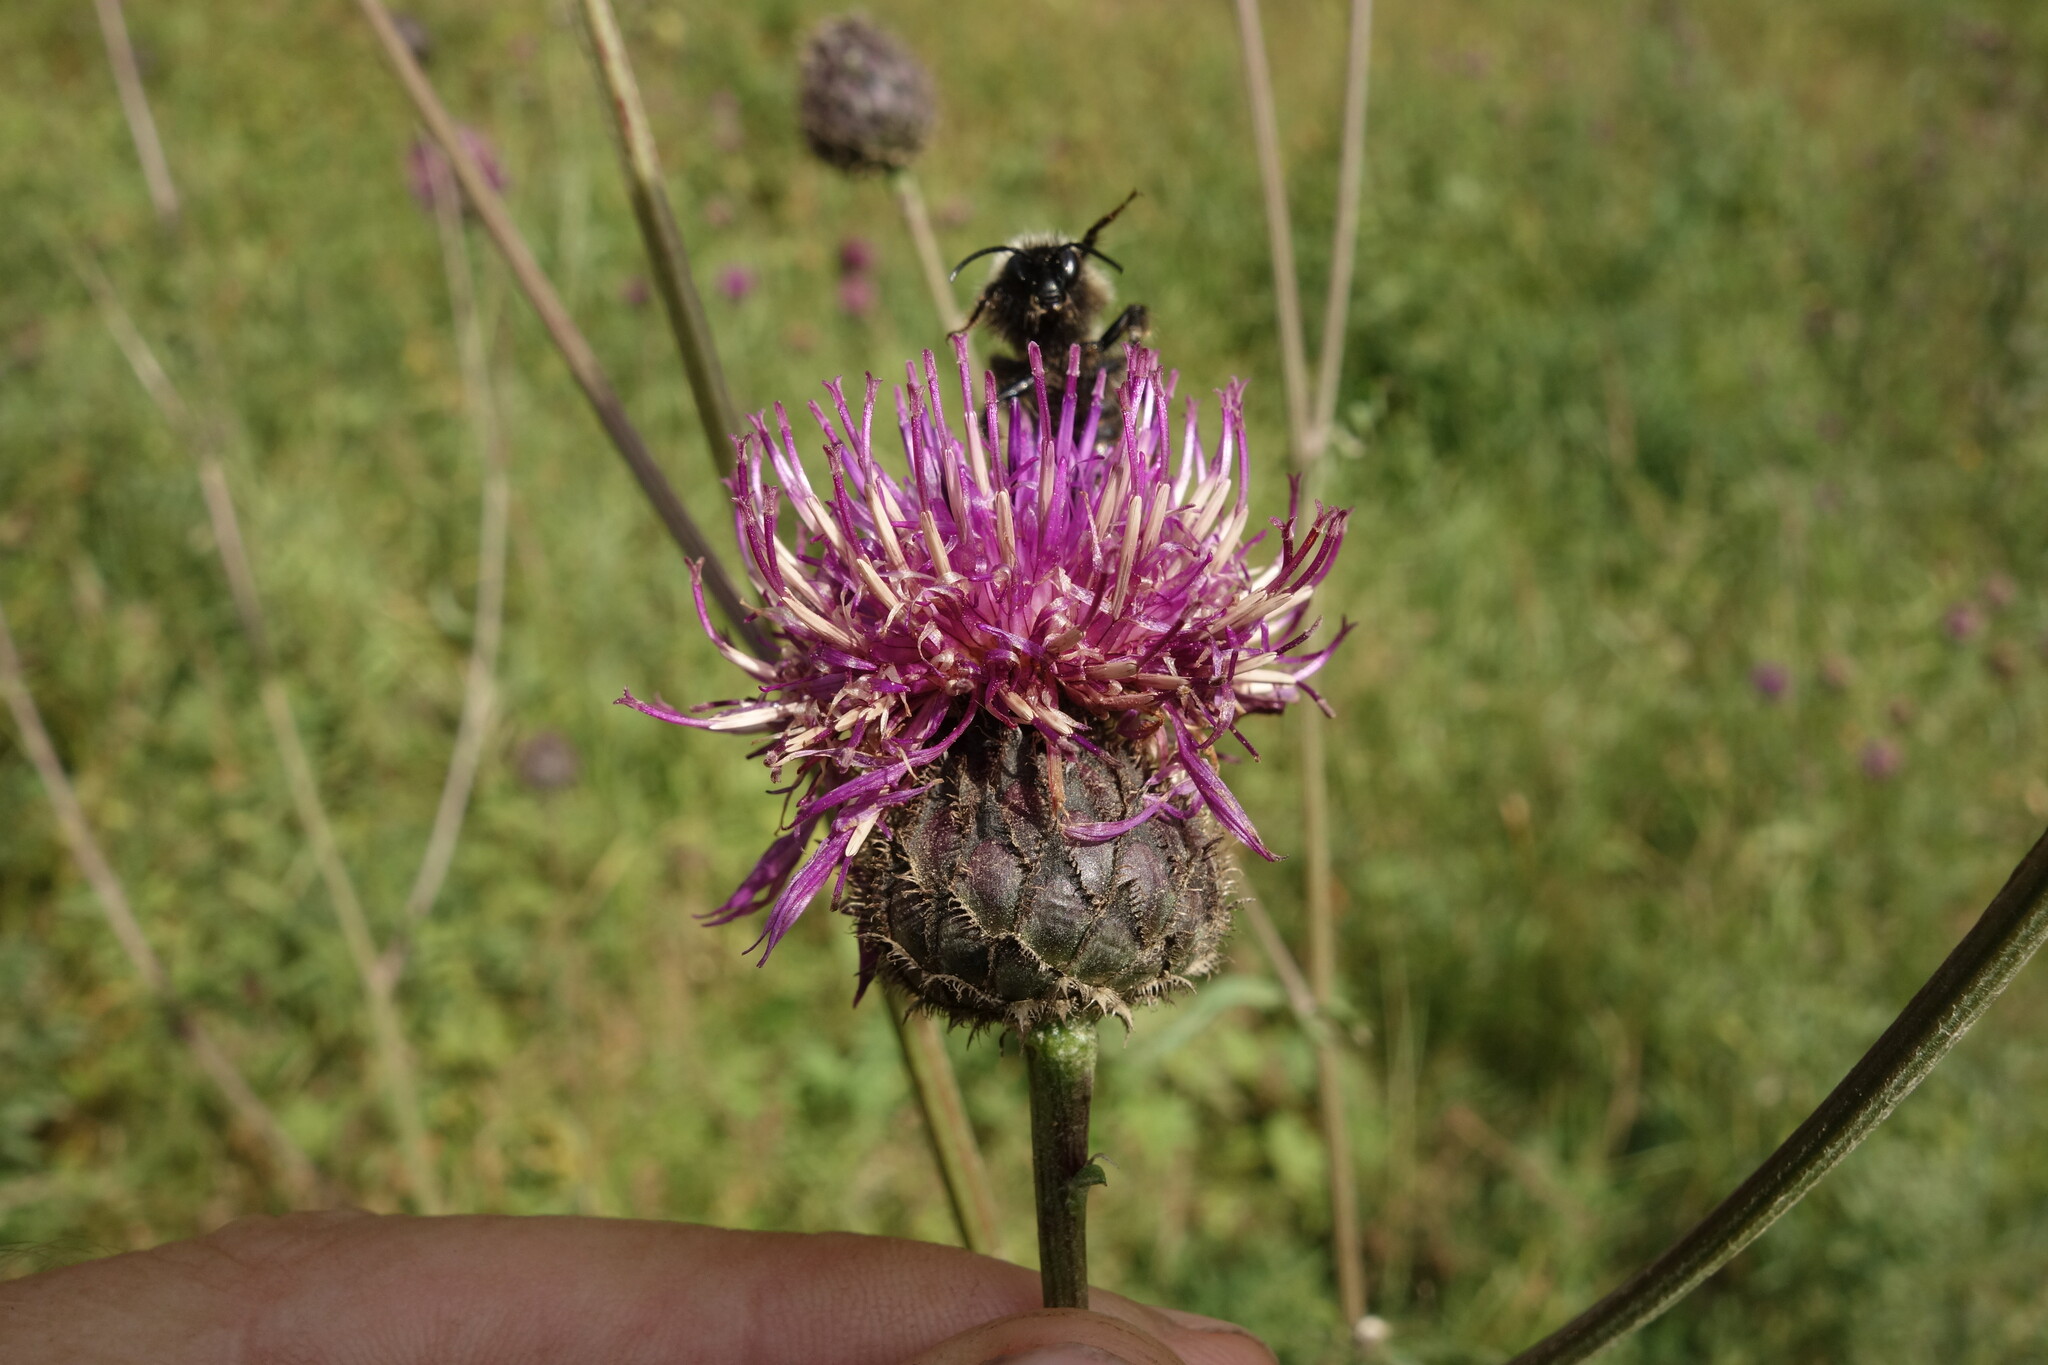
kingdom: Plantae
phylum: Tracheophyta
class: Magnoliopsida
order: Asterales
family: Asteraceae
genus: Centaurea
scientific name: Centaurea scabiosa
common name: Greater knapweed
